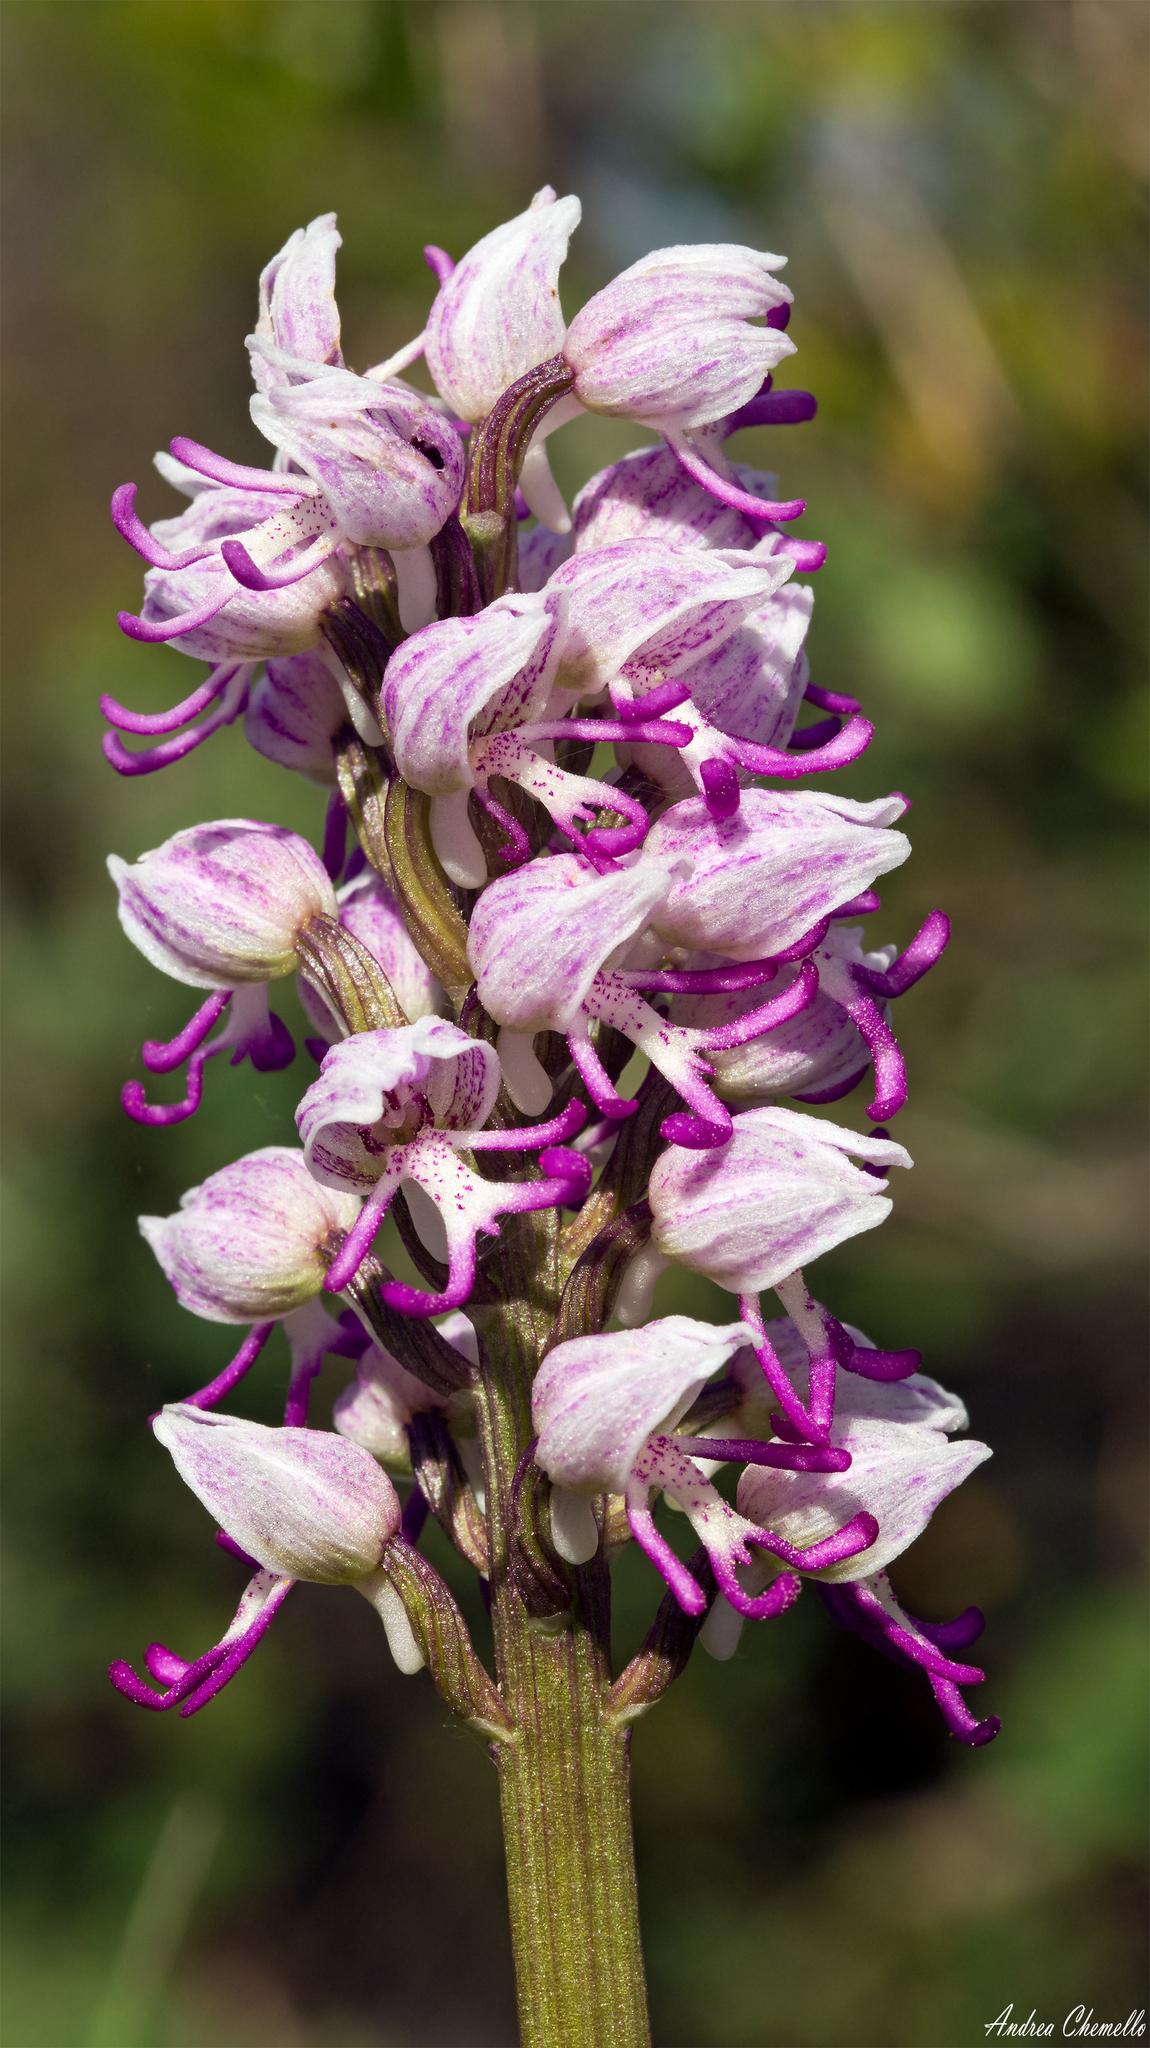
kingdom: Plantae
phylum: Tracheophyta
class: Liliopsida
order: Asparagales
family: Orchidaceae
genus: Orchis
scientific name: Orchis simia
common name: Monkey orchid
